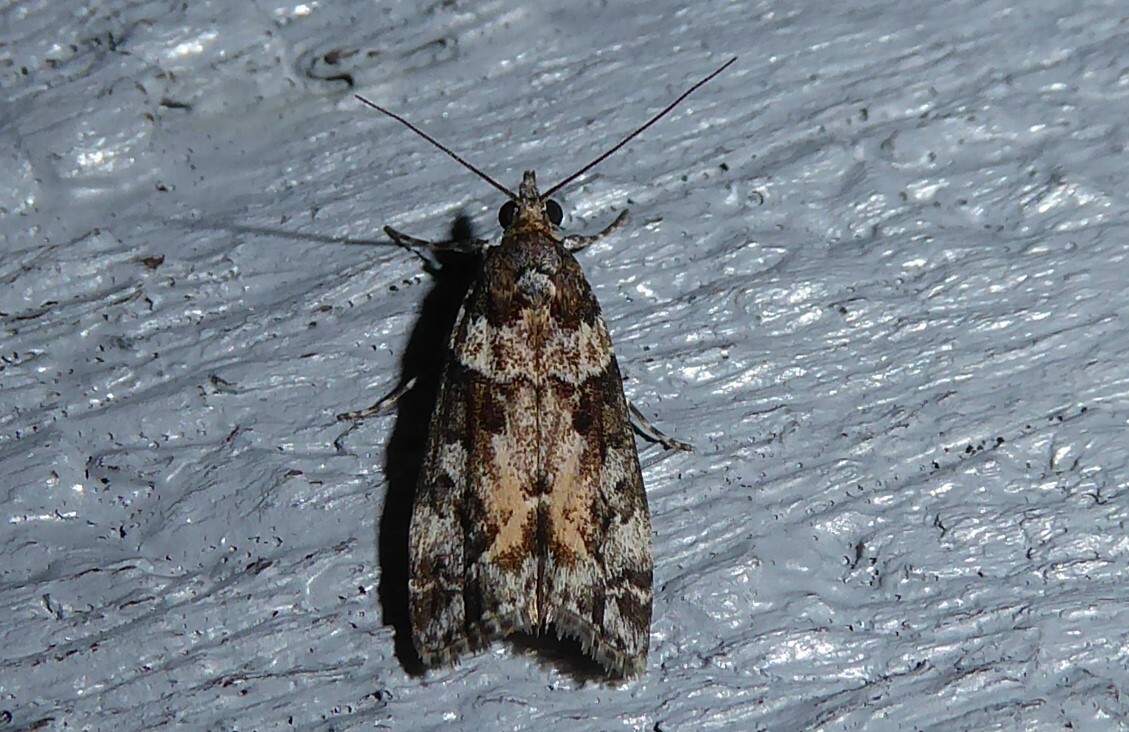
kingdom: Animalia
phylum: Arthropoda
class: Insecta
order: Lepidoptera
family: Crambidae
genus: Eudonia
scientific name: Eudonia submarginalis
